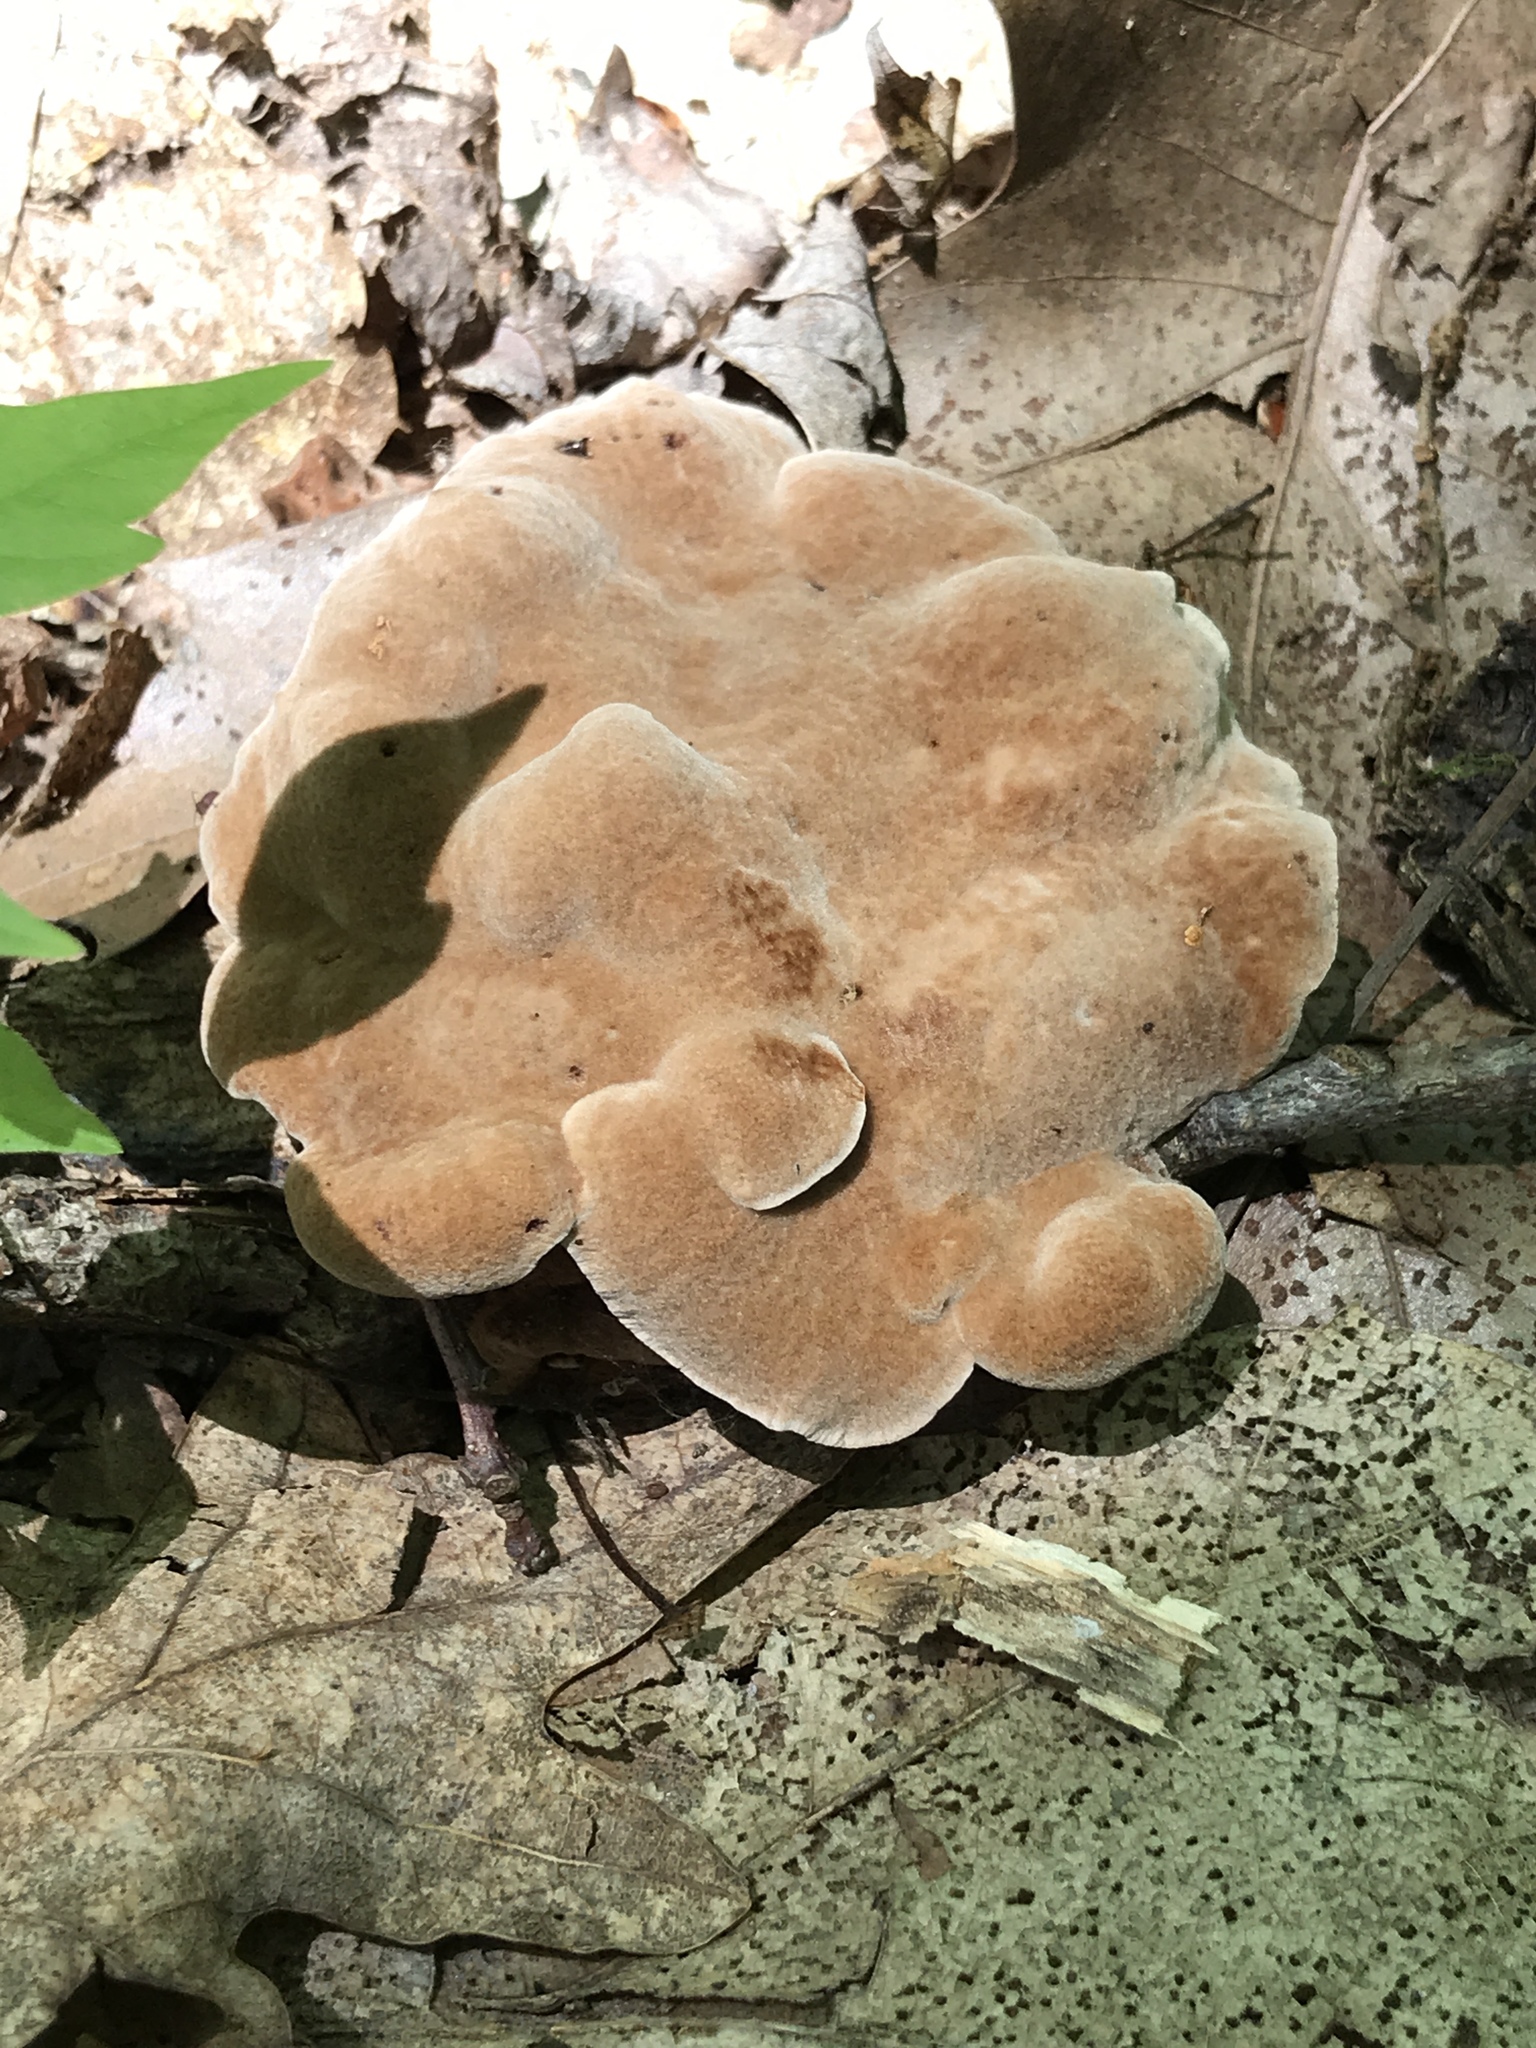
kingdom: Fungi
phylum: Basidiomycota
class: Agaricomycetes
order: Russulales
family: Bondarzewiaceae
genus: Bondarzewia
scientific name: Bondarzewia berkeleyi
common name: Berkeley's polypore
